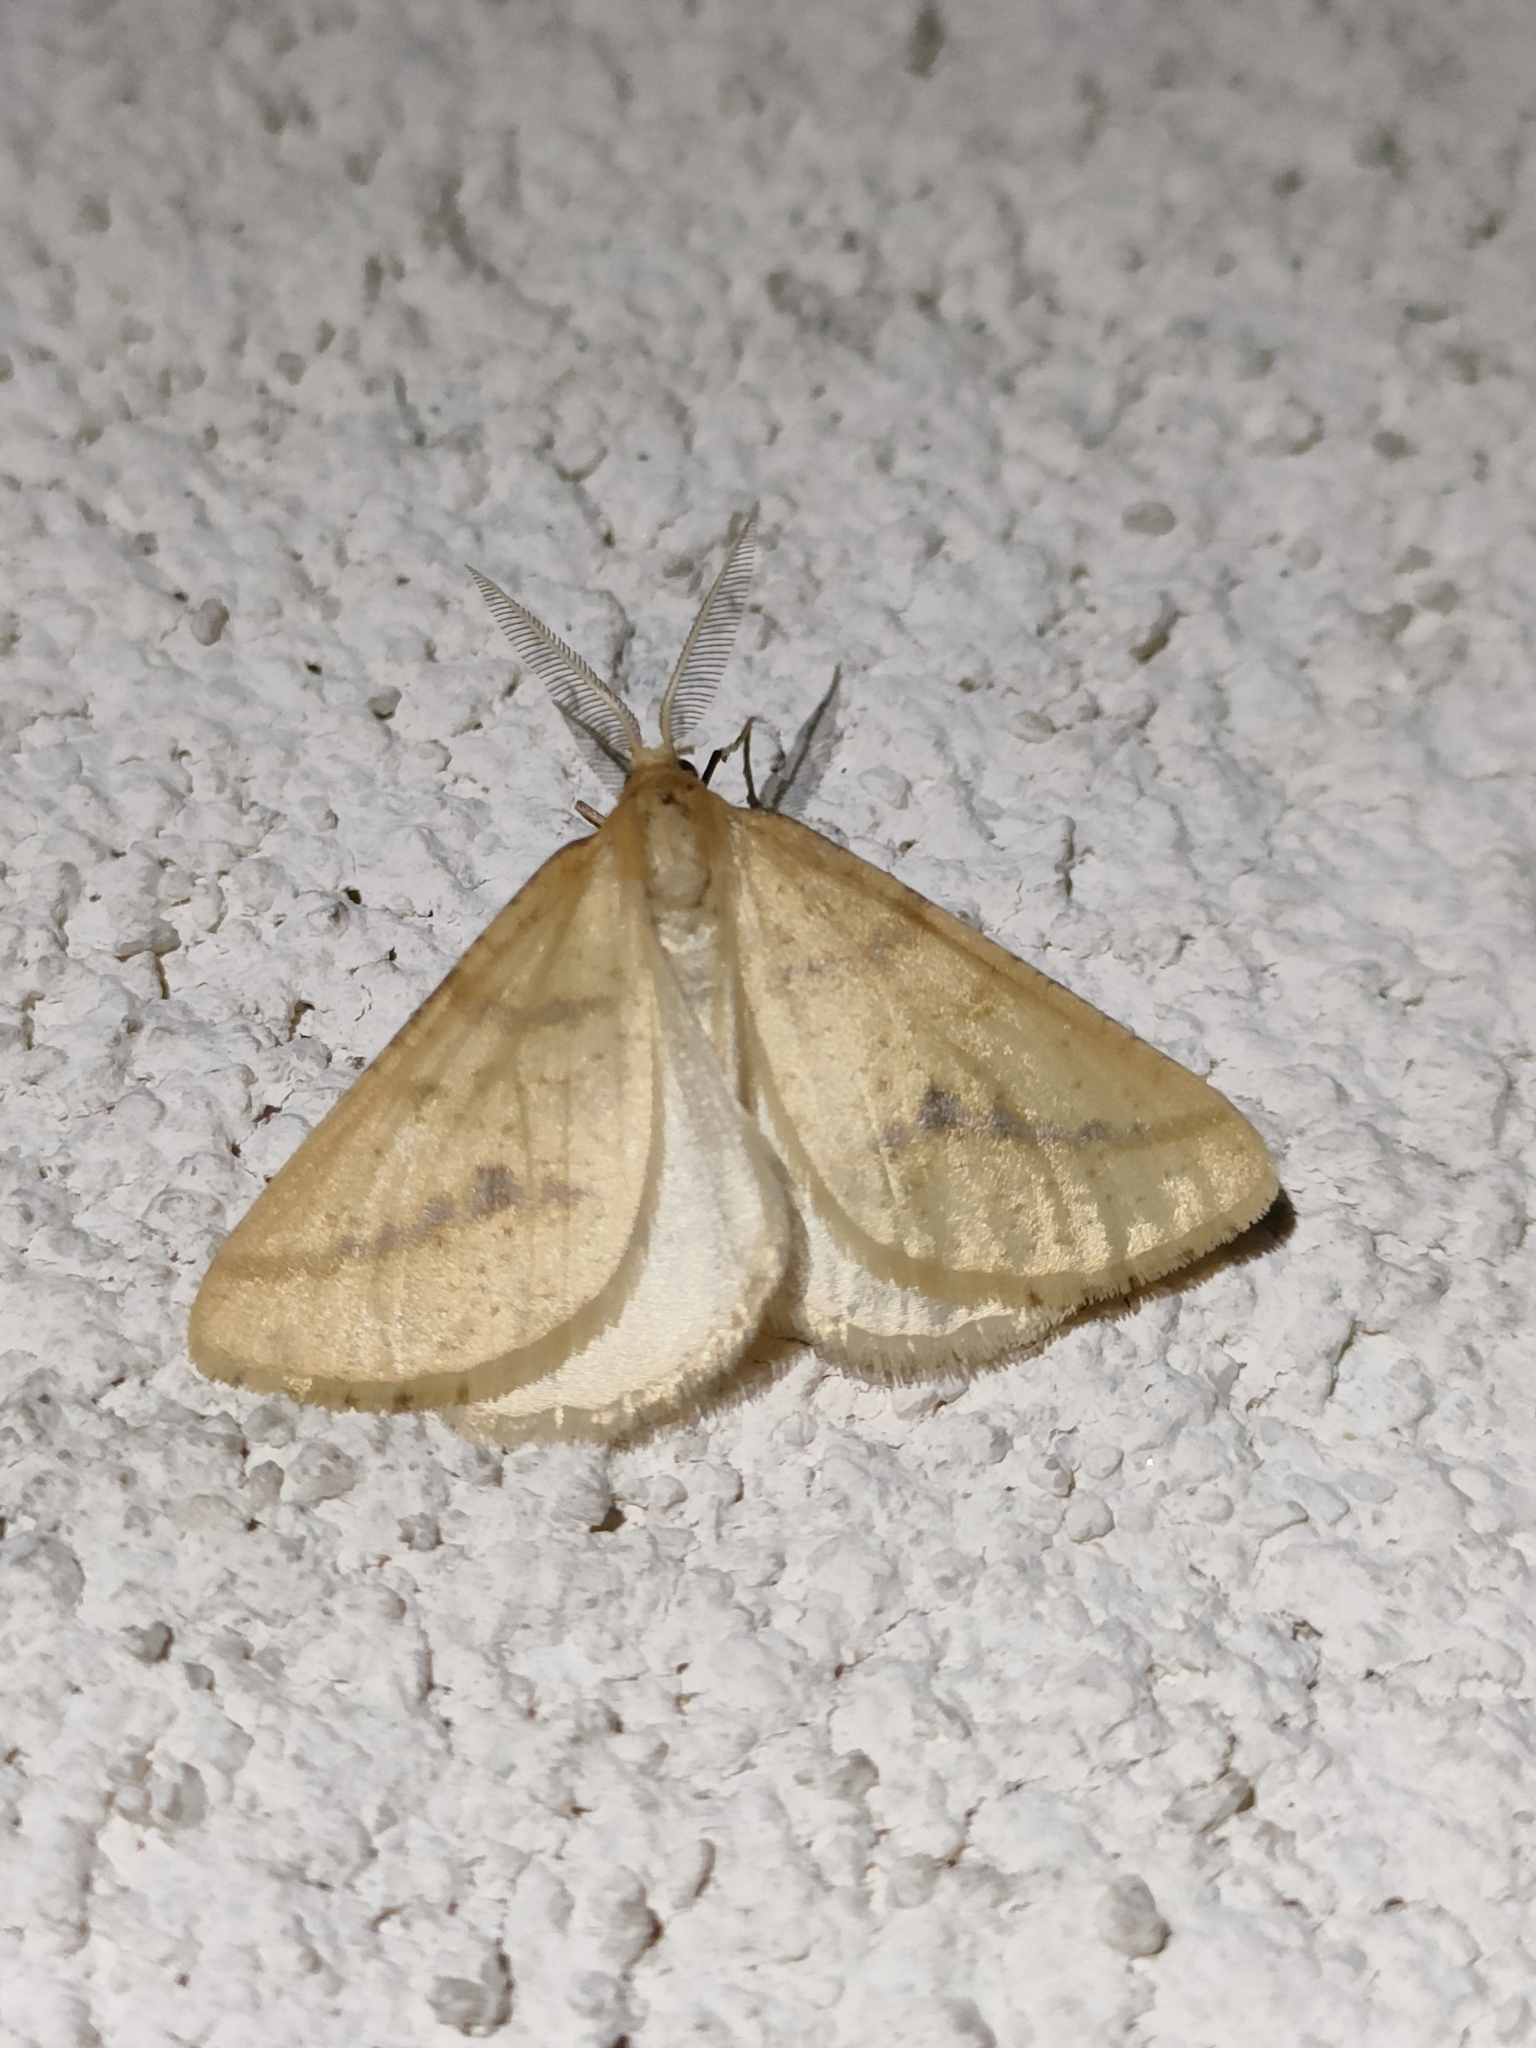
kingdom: Animalia
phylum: Arthropoda
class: Insecta
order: Lepidoptera
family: Geometridae
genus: Aspitates
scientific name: Aspitates ochrearia
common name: Yellow belle
